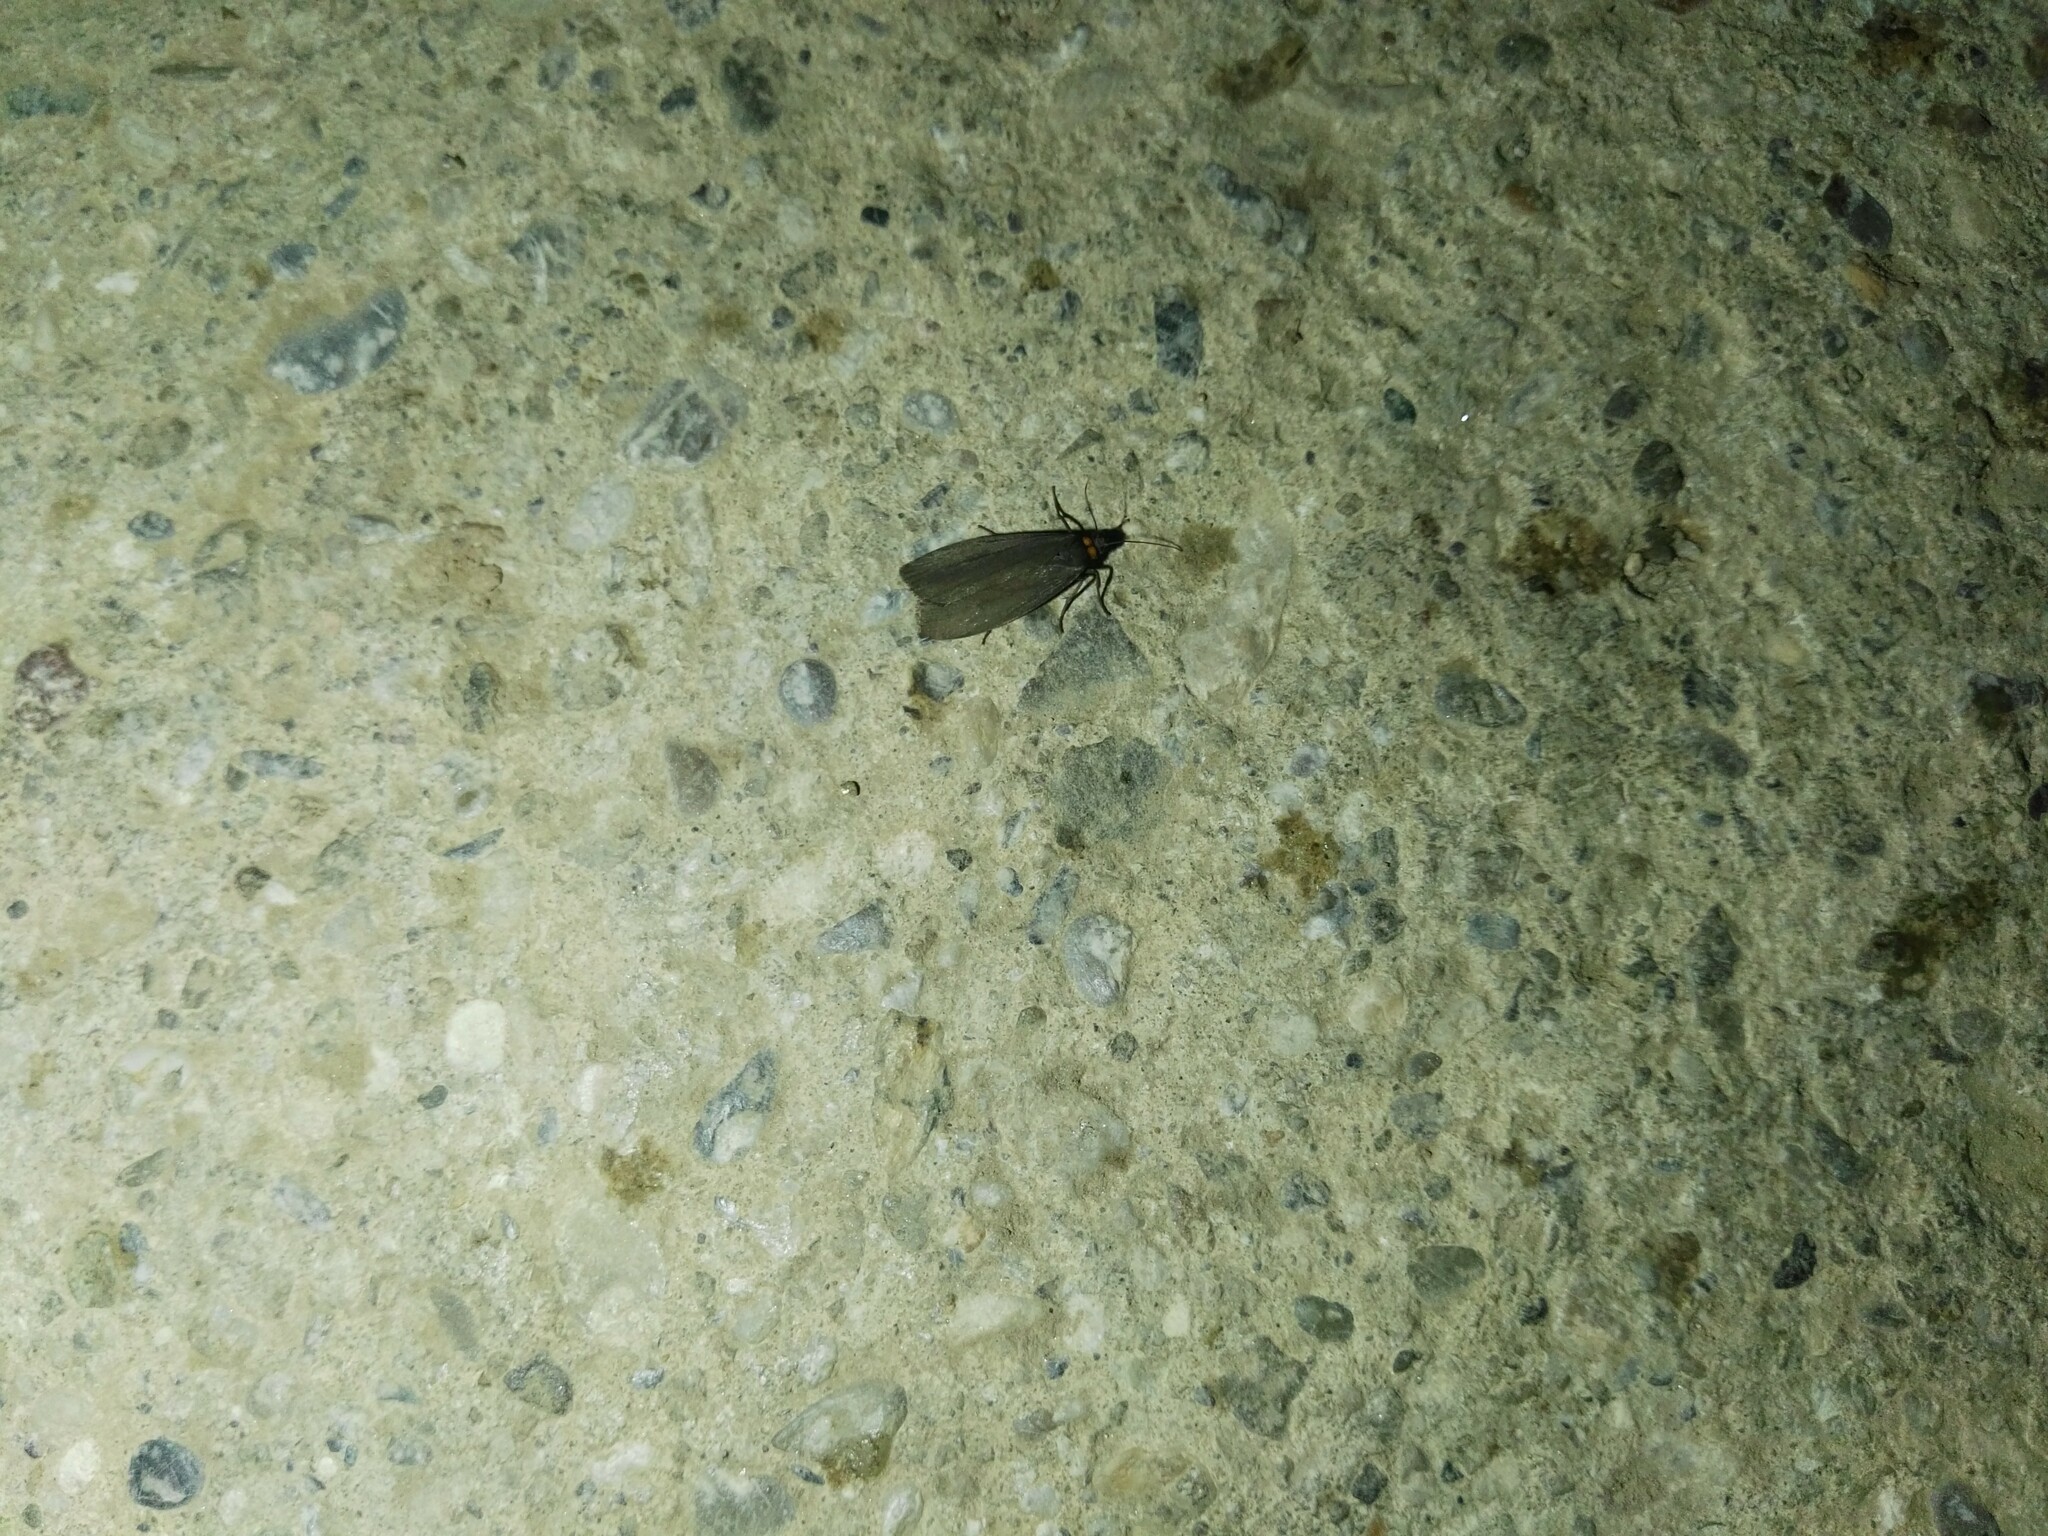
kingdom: Animalia
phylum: Arthropoda
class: Insecta
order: Lepidoptera
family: Erebidae
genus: Atolmis
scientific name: Atolmis rubricollis
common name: Red-necked footman
